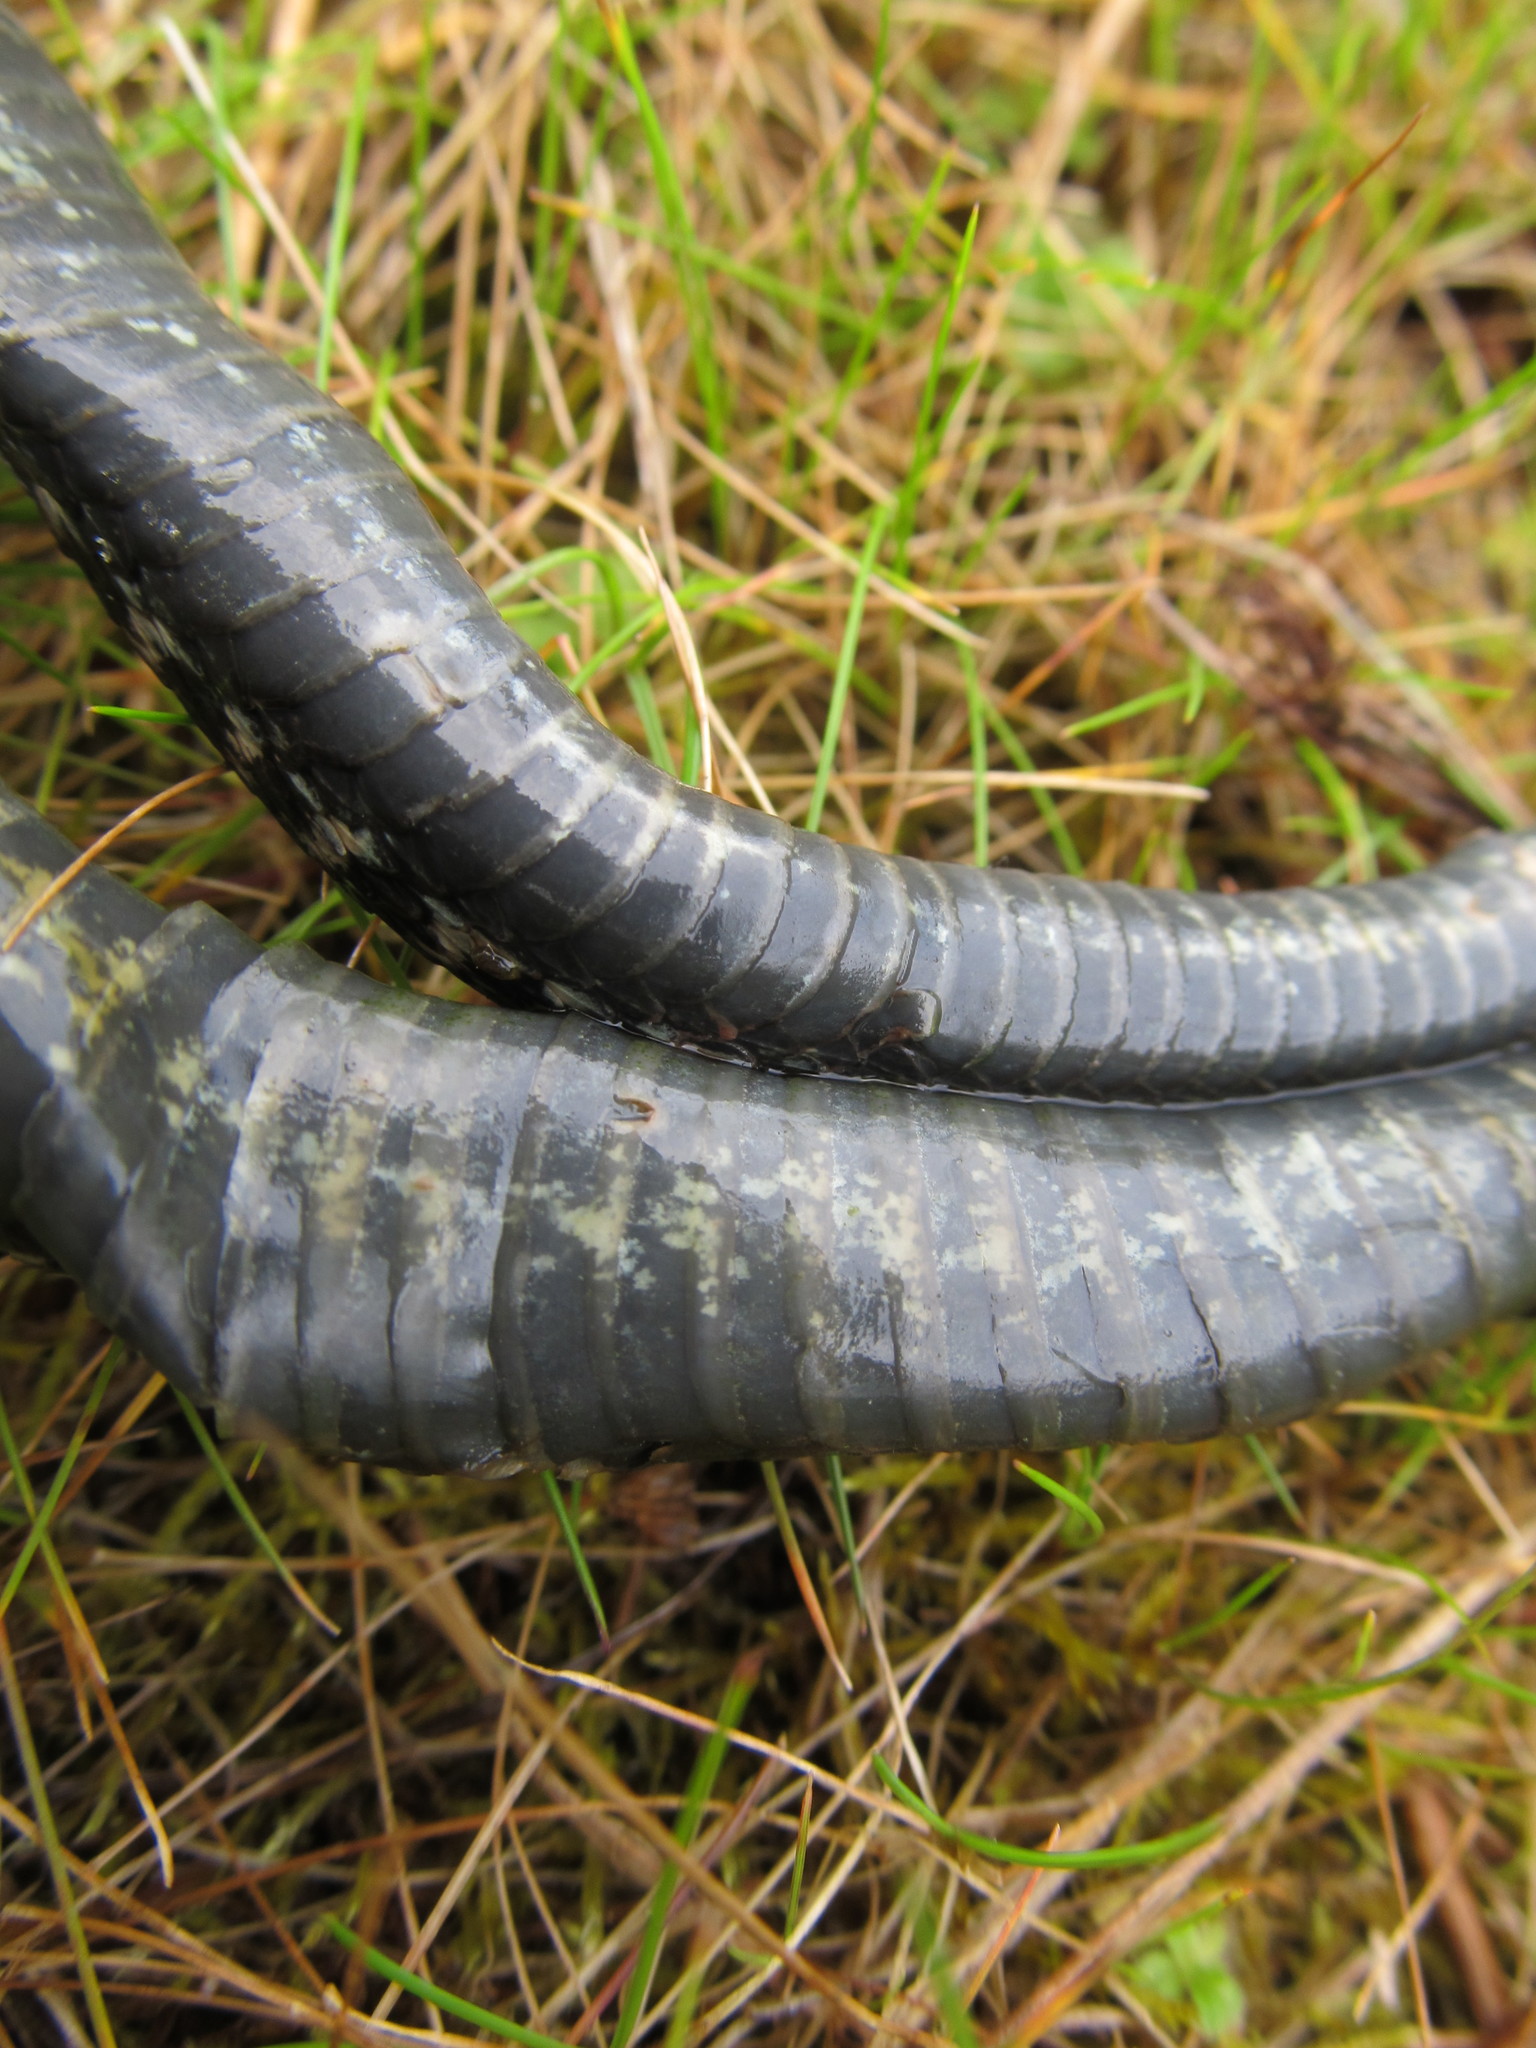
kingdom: Animalia
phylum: Chordata
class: Squamata
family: Colubridae
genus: Thamnophis
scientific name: Thamnophis sirtalis
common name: Common garter snake
